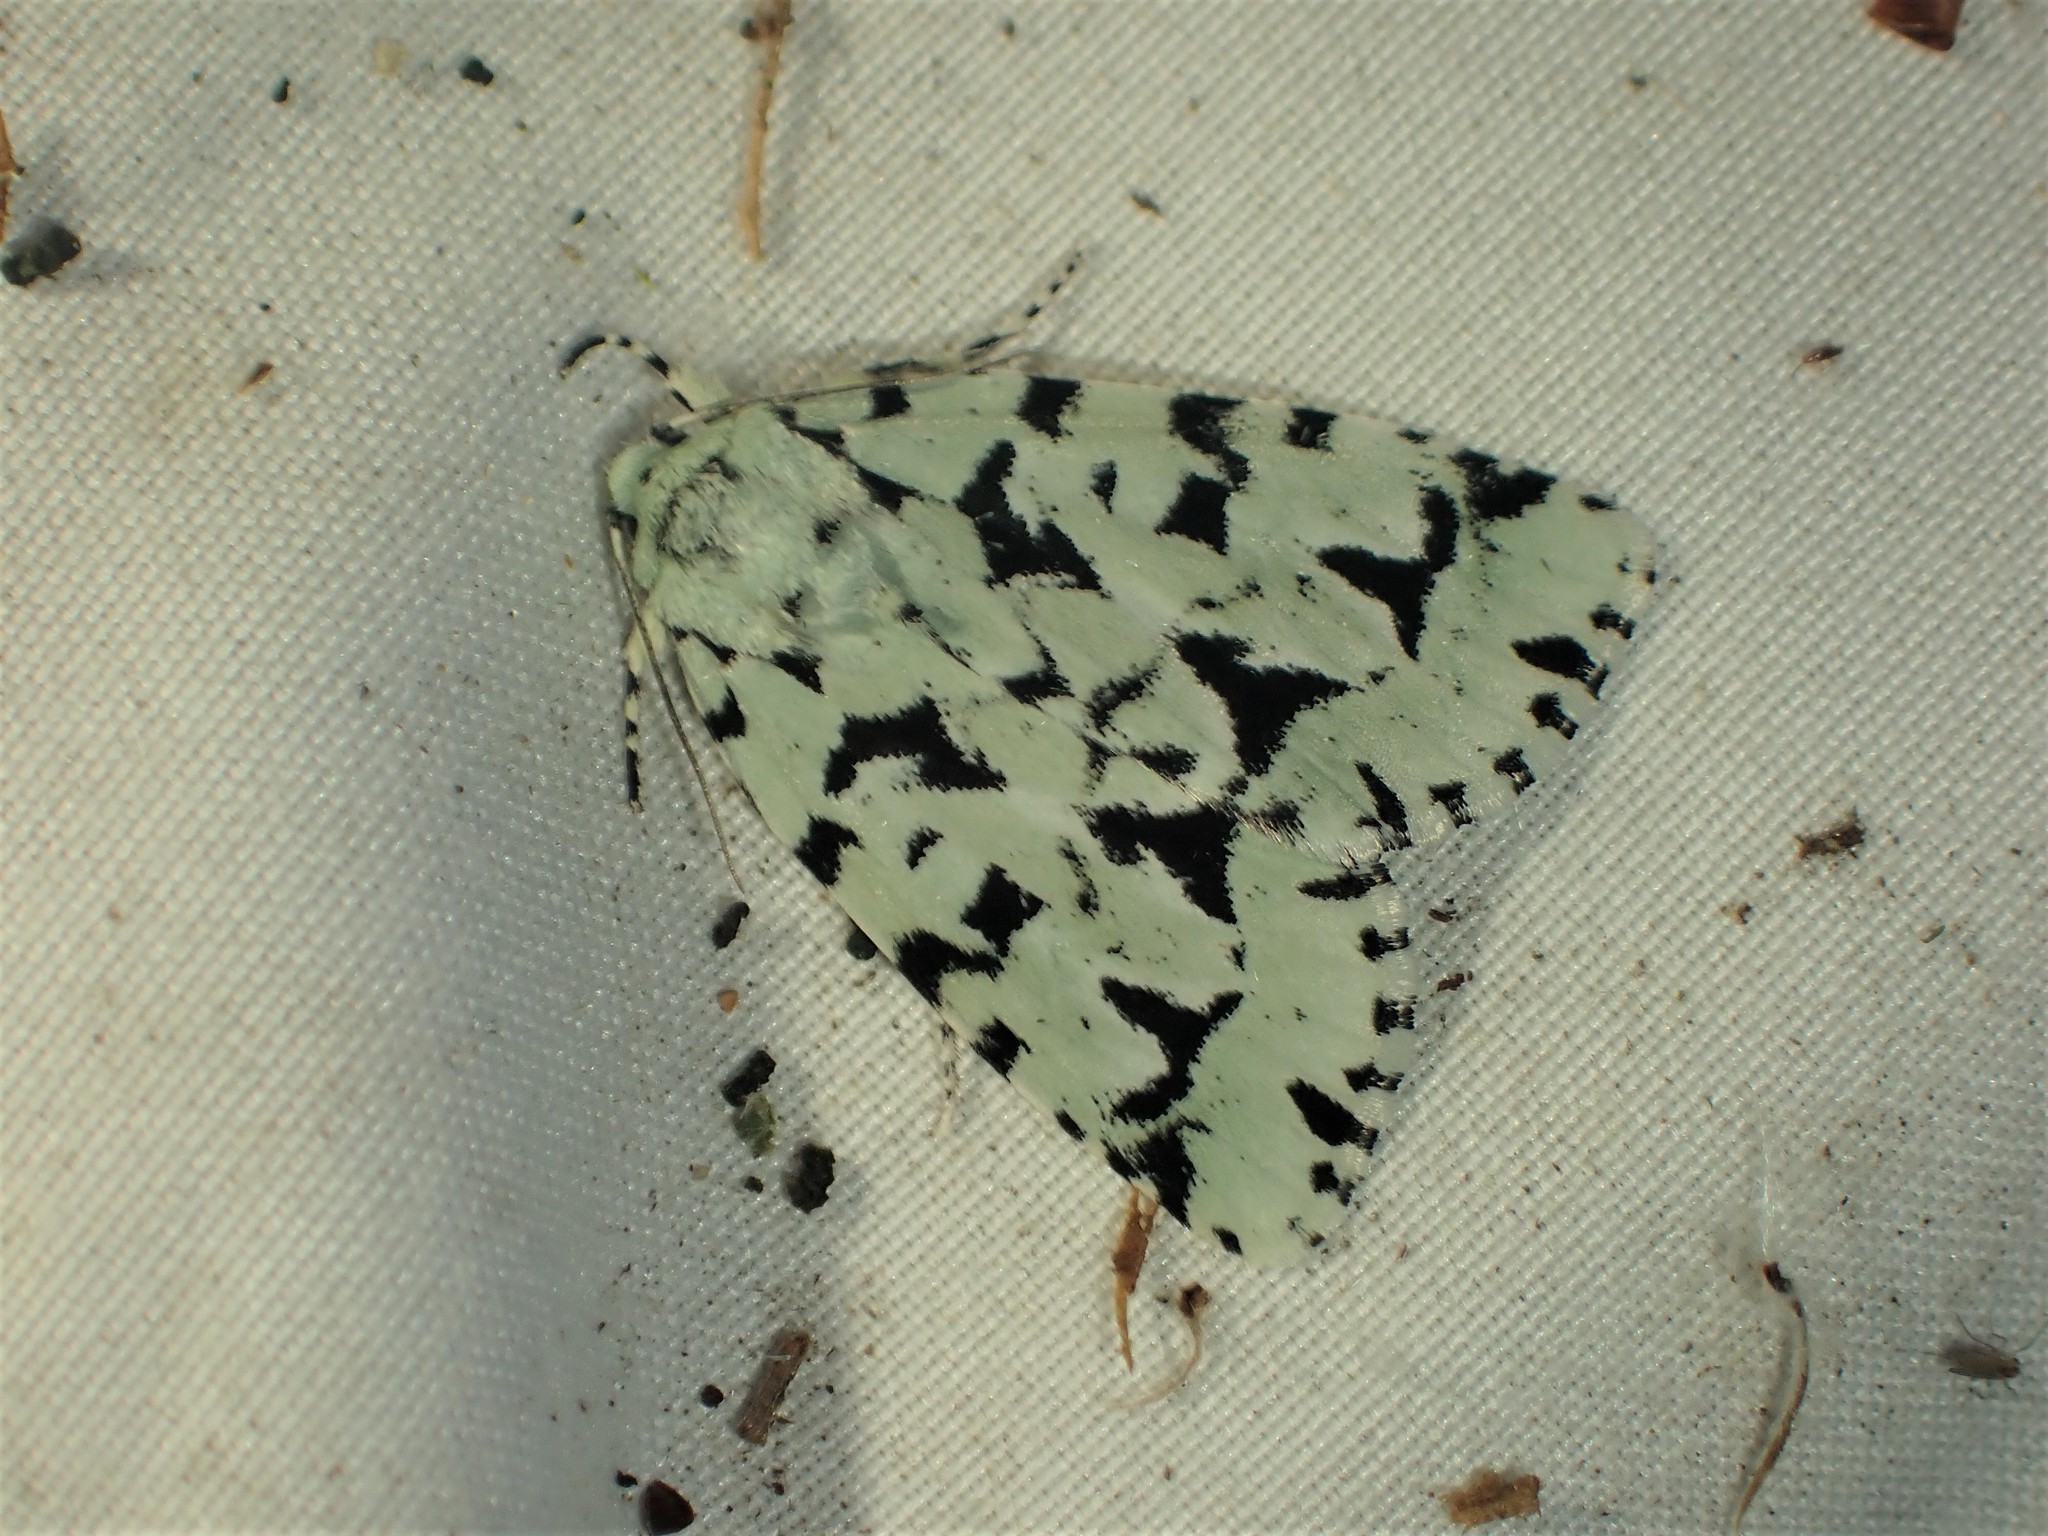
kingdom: Animalia
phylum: Arthropoda
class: Insecta
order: Lepidoptera
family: Noctuidae
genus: Acronicta
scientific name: Acronicta fallax
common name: Green marvel
